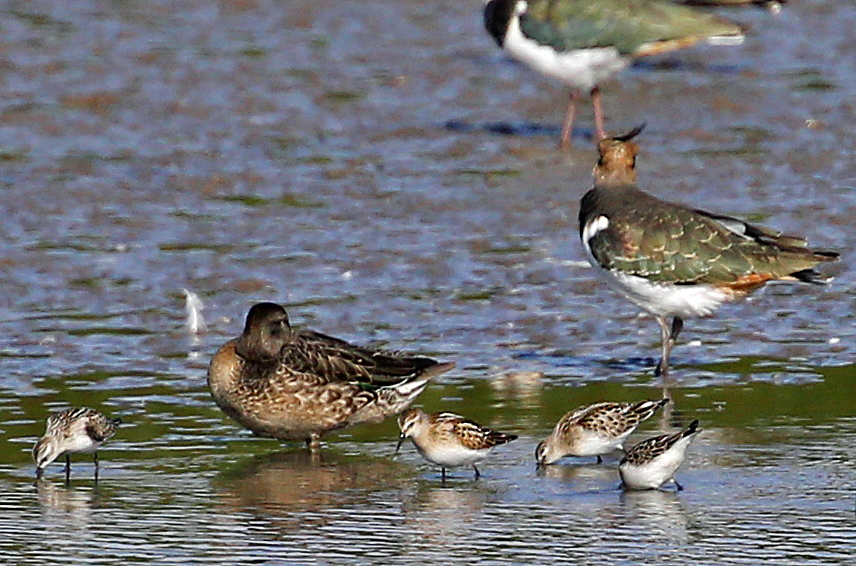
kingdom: Animalia
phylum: Chordata
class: Aves
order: Anseriformes
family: Anatidae
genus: Anas
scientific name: Anas crecca
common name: Eurasian teal
